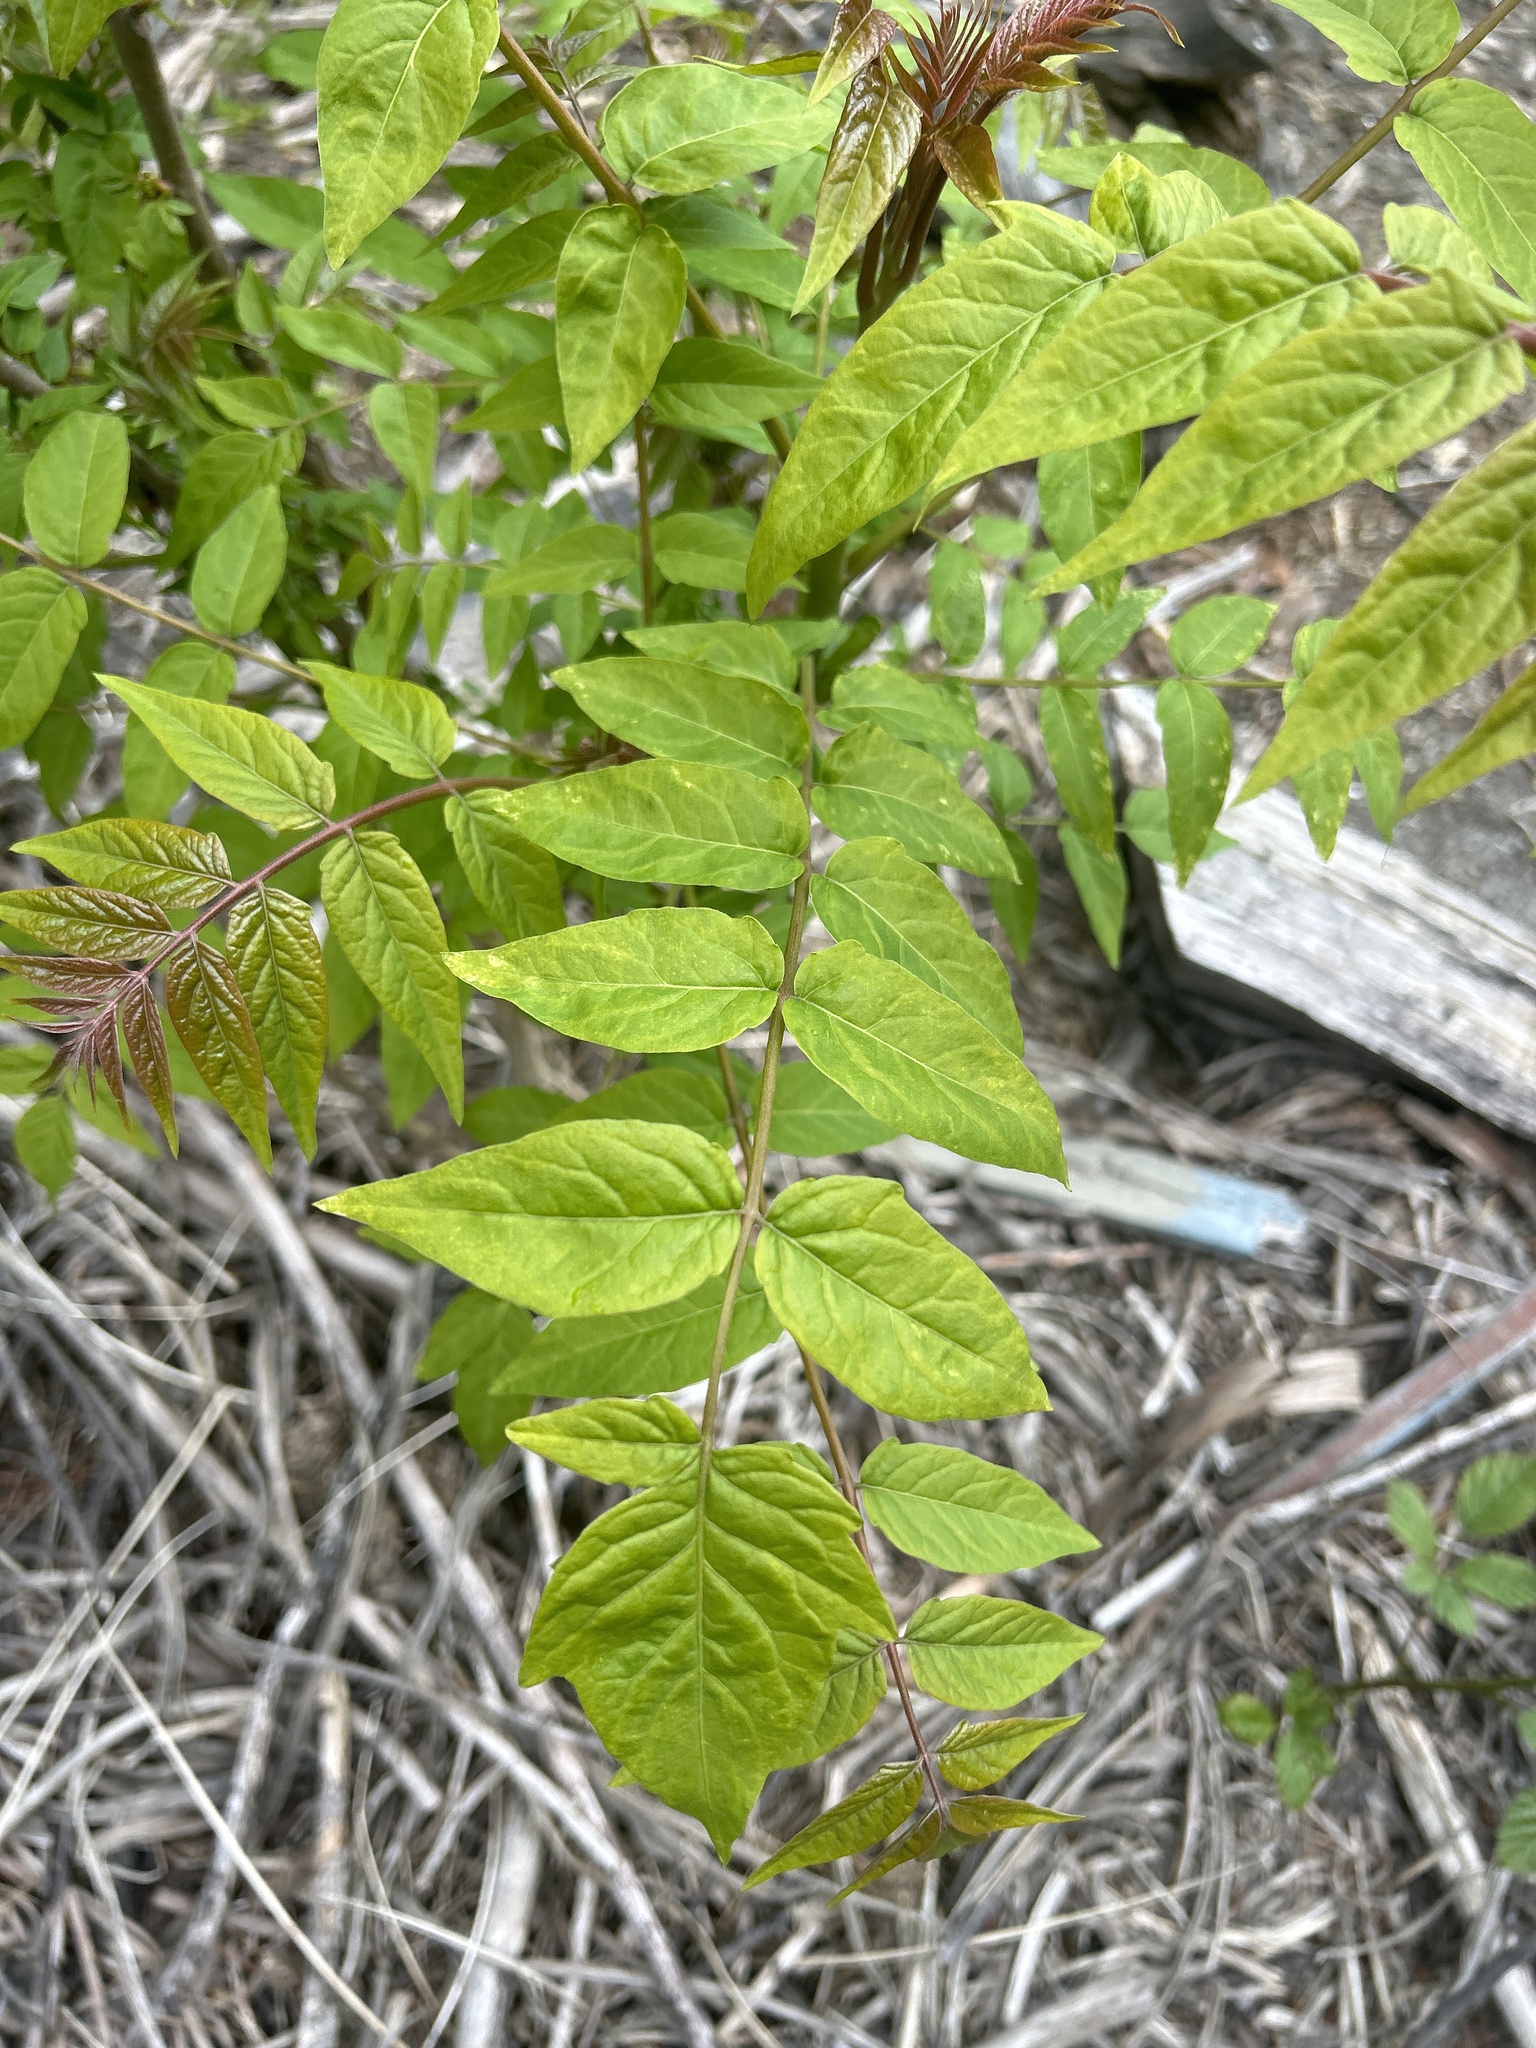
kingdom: Plantae
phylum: Tracheophyta
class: Magnoliopsida
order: Sapindales
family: Simaroubaceae
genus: Ailanthus
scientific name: Ailanthus altissima
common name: Tree-of-heaven
